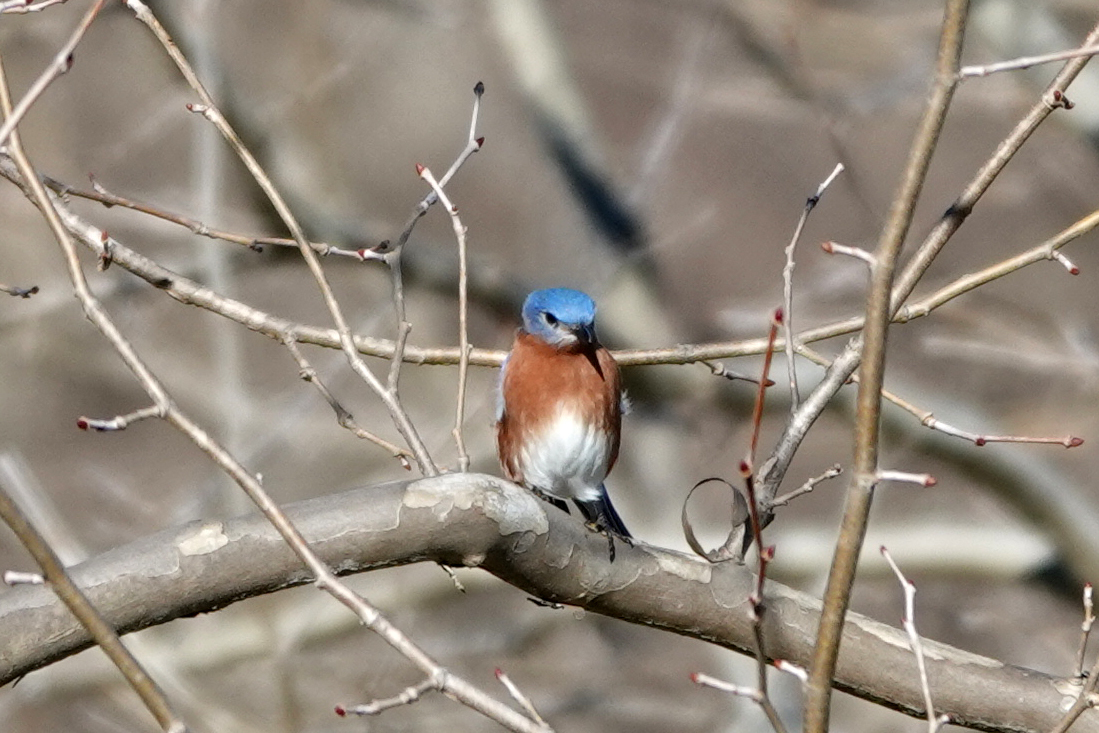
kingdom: Animalia
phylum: Chordata
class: Aves
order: Passeriformes
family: Turdidae
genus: Sialia
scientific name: Sialia sialis
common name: Eastern bluebird
